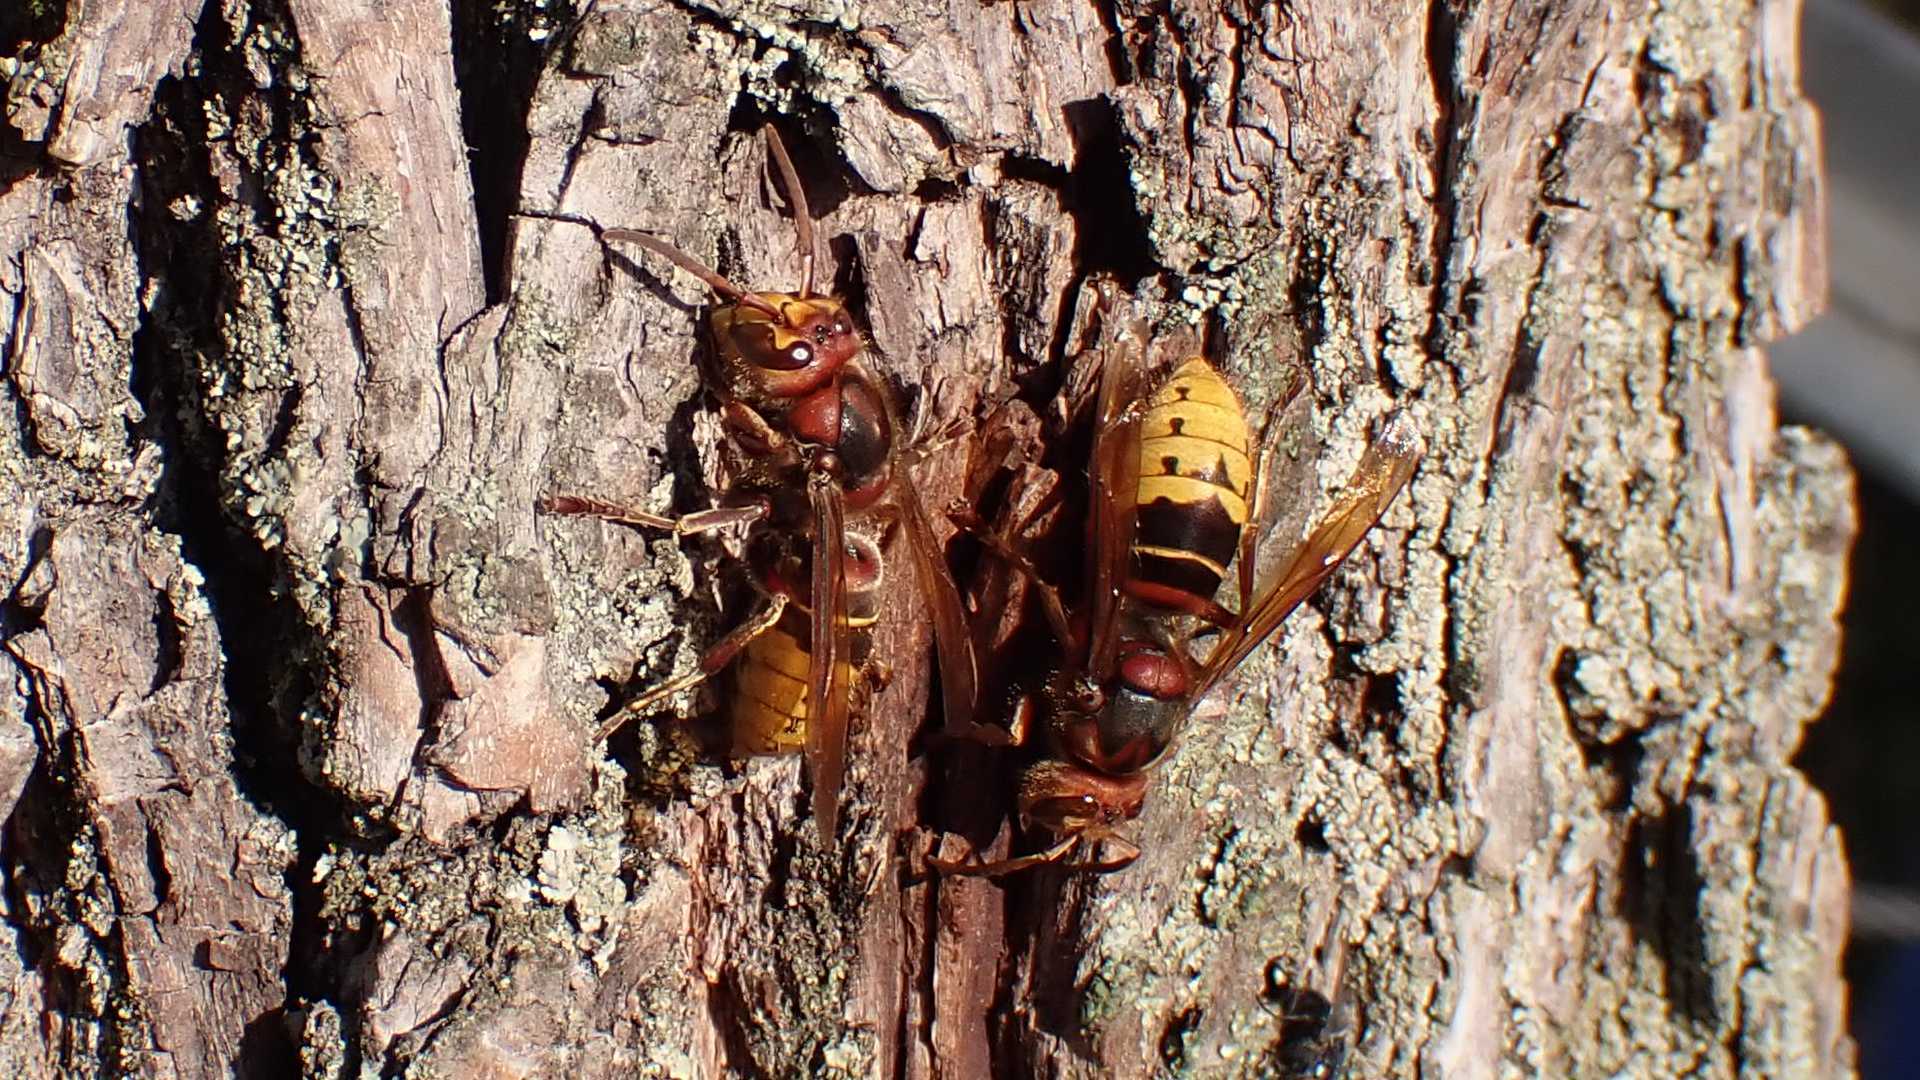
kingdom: Animalia
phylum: Arthropoda
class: Insecta
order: Hymenoptera
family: Vespidae
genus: Vespa
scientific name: Vespa crabro
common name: Hornet
